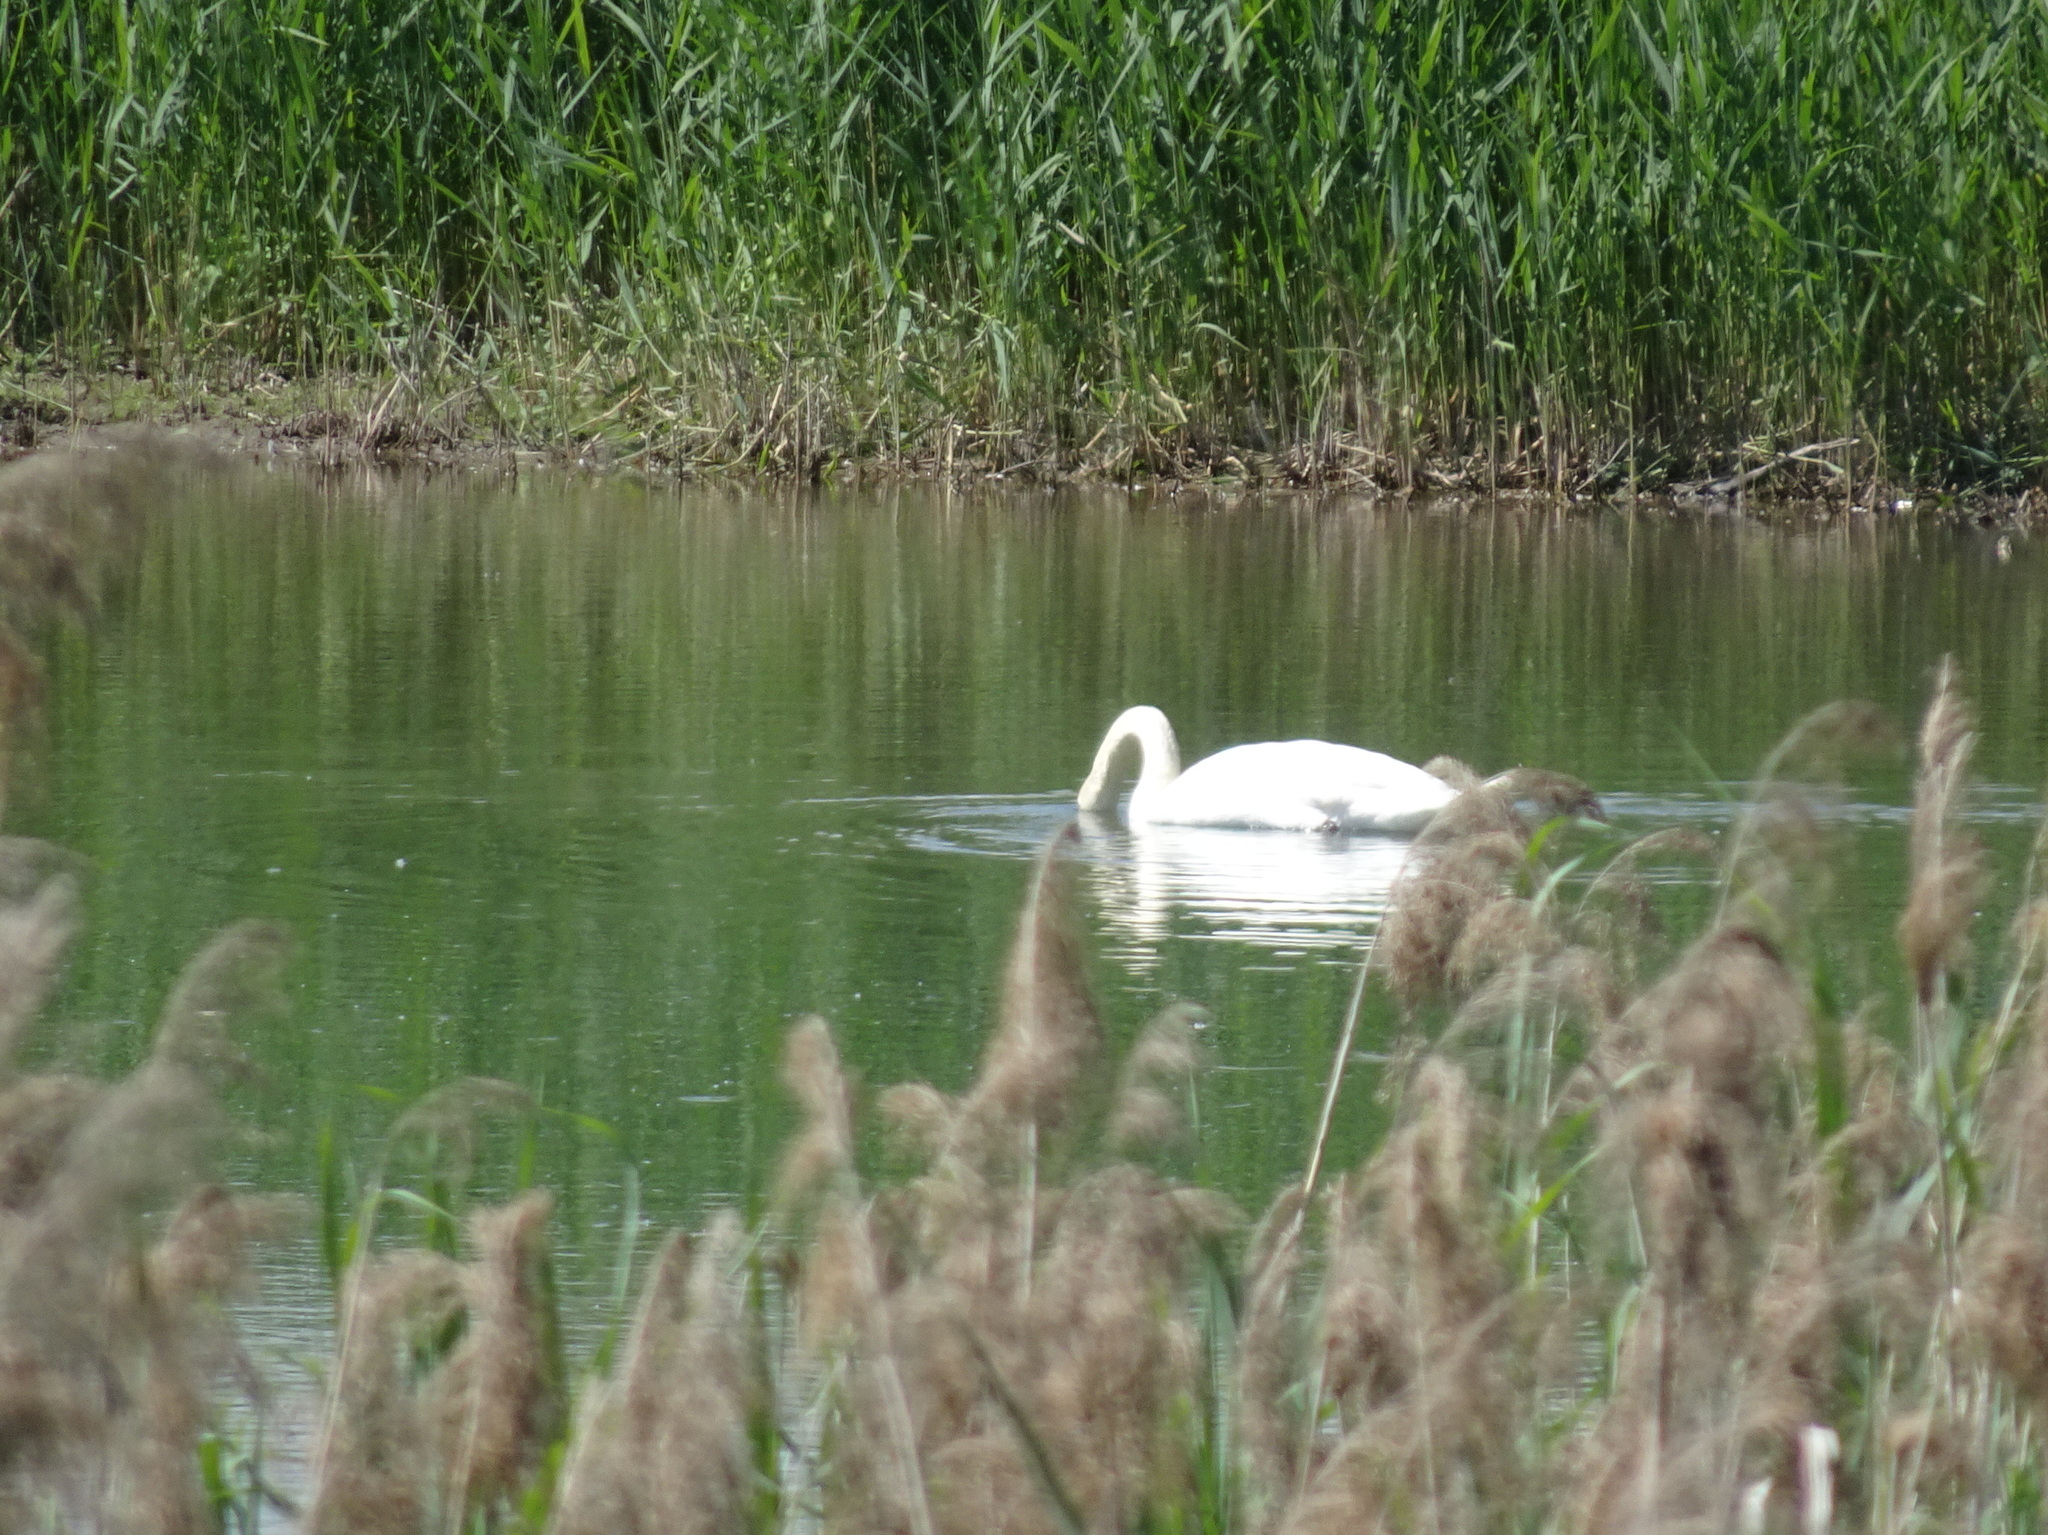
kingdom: Animalia
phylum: Chordata
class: Aves
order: Anseriformes
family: Anatidae
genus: Cygnus
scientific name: Cygnus olor
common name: Mute swan
